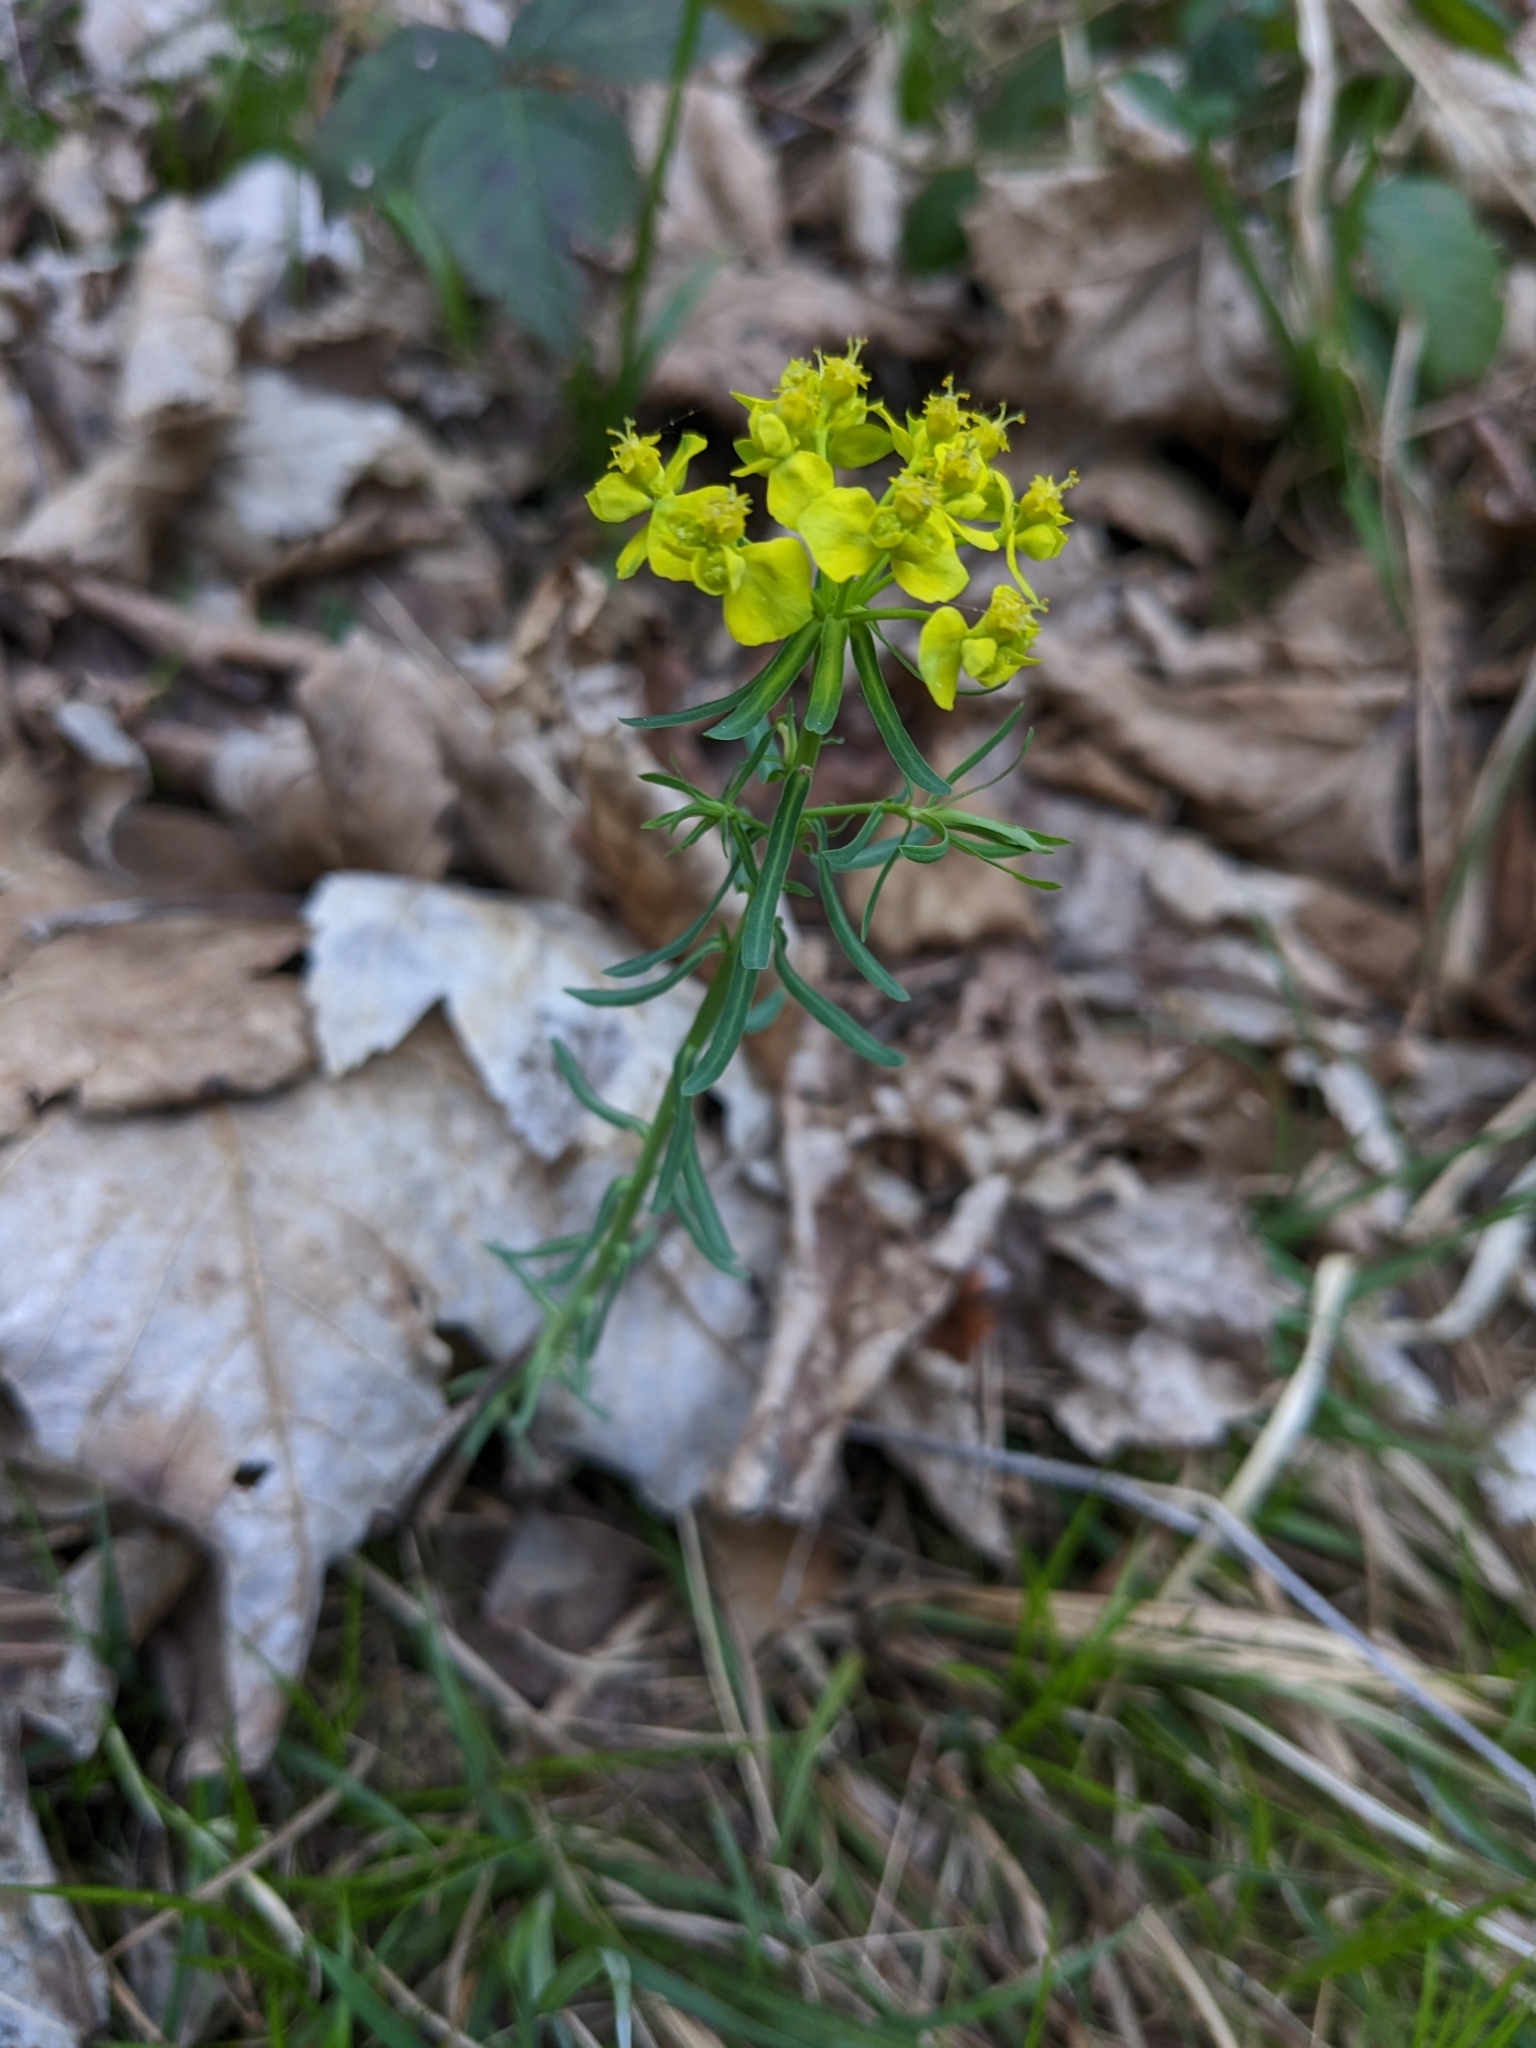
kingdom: Plantae
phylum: Tracheophyta
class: Magnoliopsida
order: Malpighiales
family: Euphorbiaceae
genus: Euphorbia
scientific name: Euphorbia cyparissias
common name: Cypress spurge
